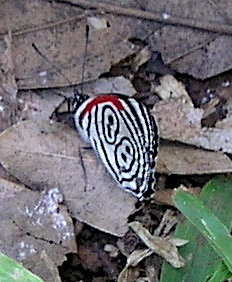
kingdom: Animalia
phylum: Arthropoda
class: Insecta
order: Lepidoptera
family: Nymphalidae
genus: Diaethria
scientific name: Diaethria clymena
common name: Widespread eighty-eight
